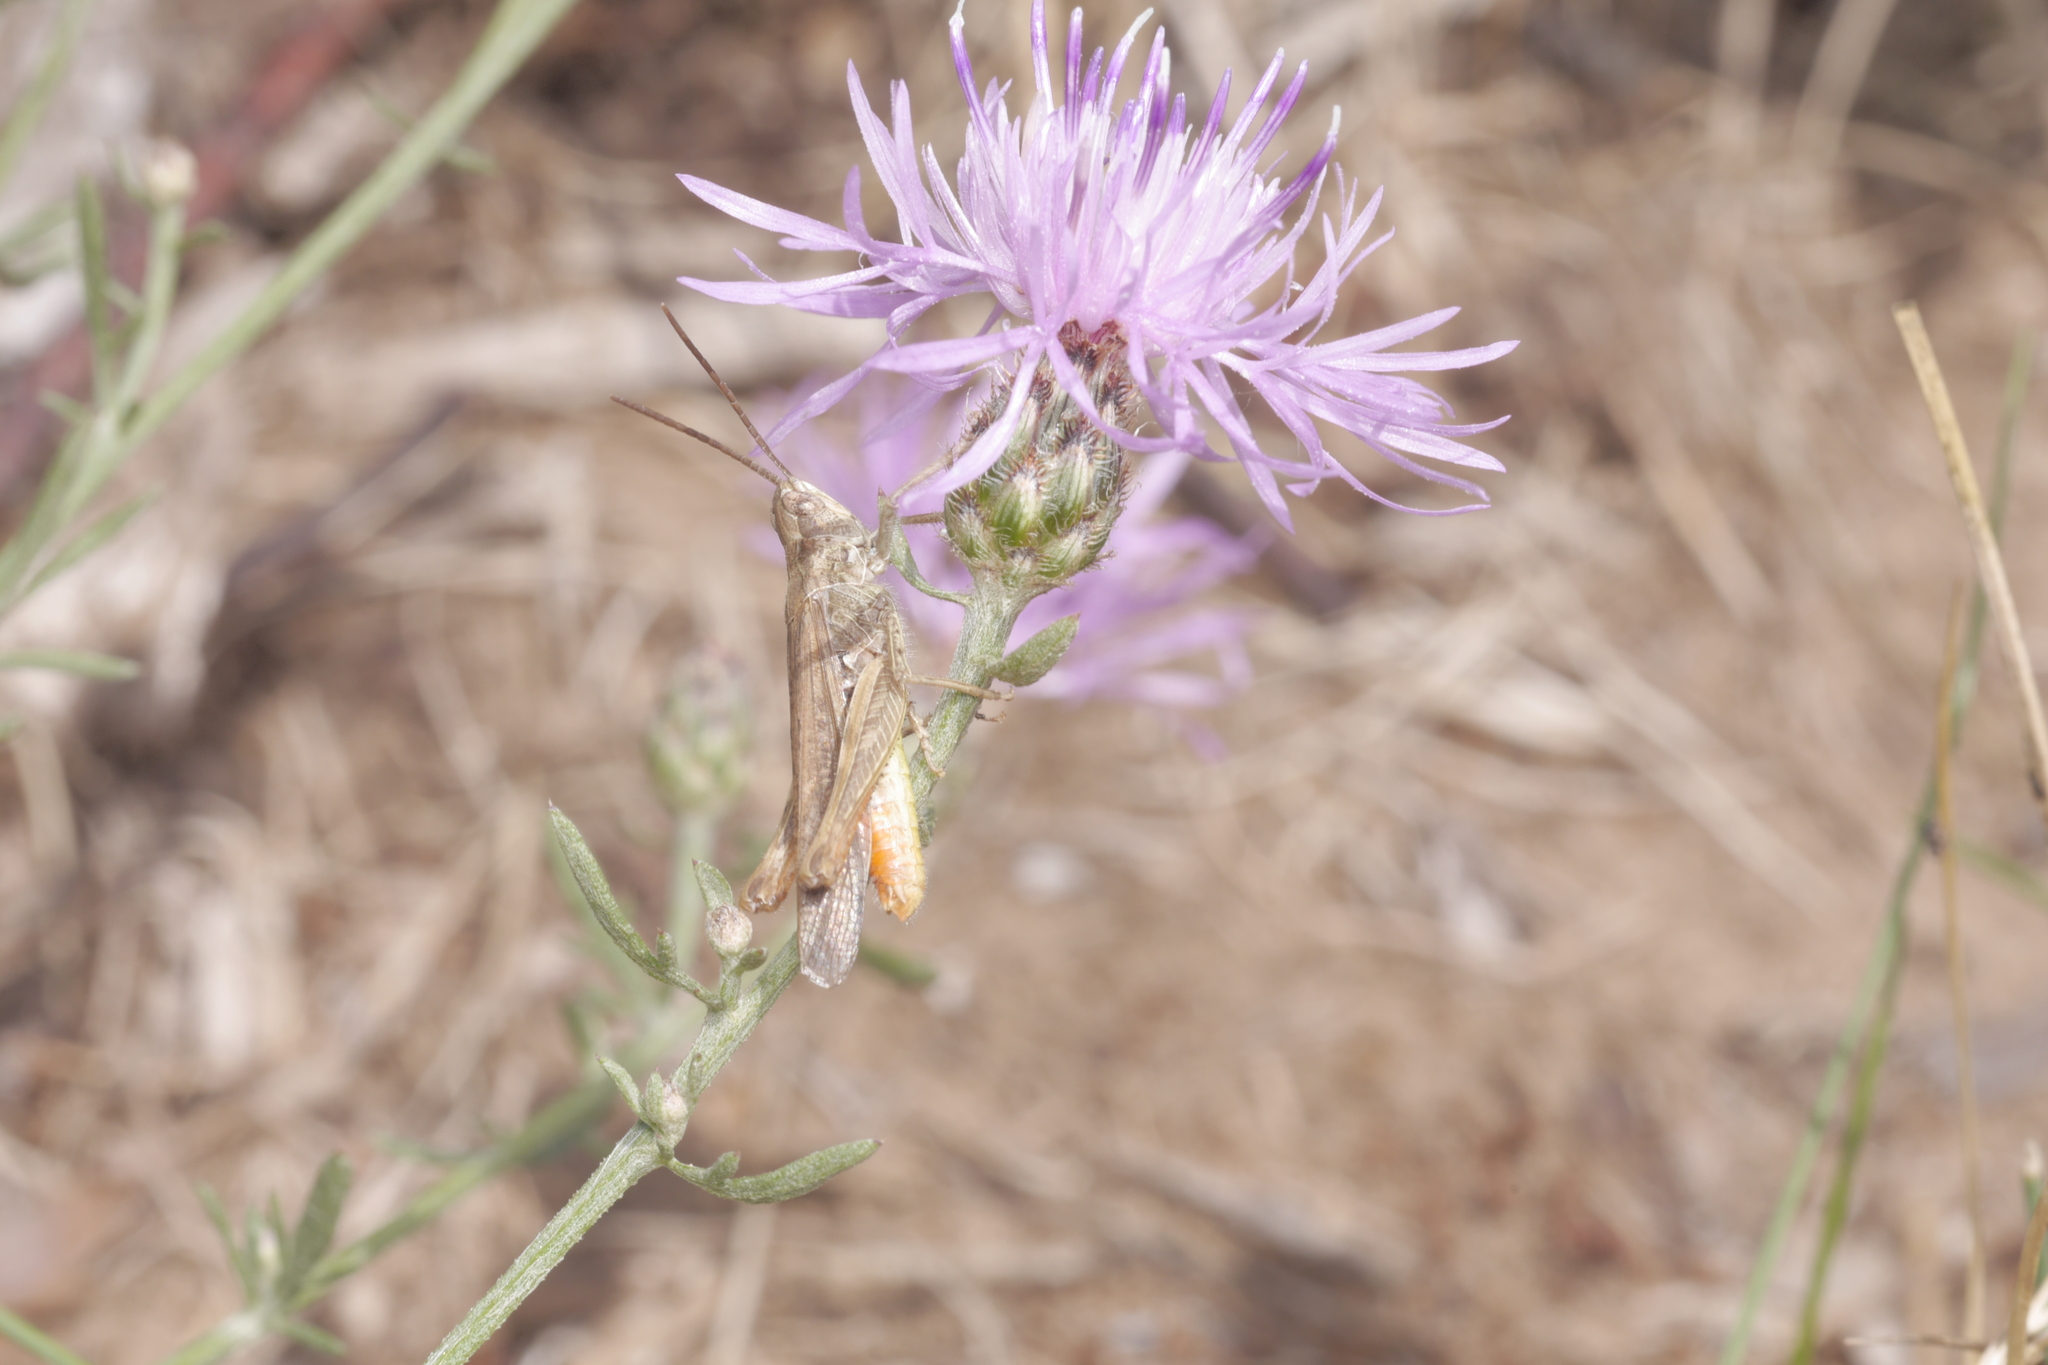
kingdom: Animalia
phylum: Arthropoda
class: Insecta
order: Orthoptera
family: Acrididae
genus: Chorthippus
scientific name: Chorthippus brunneus
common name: Field grasshopper
